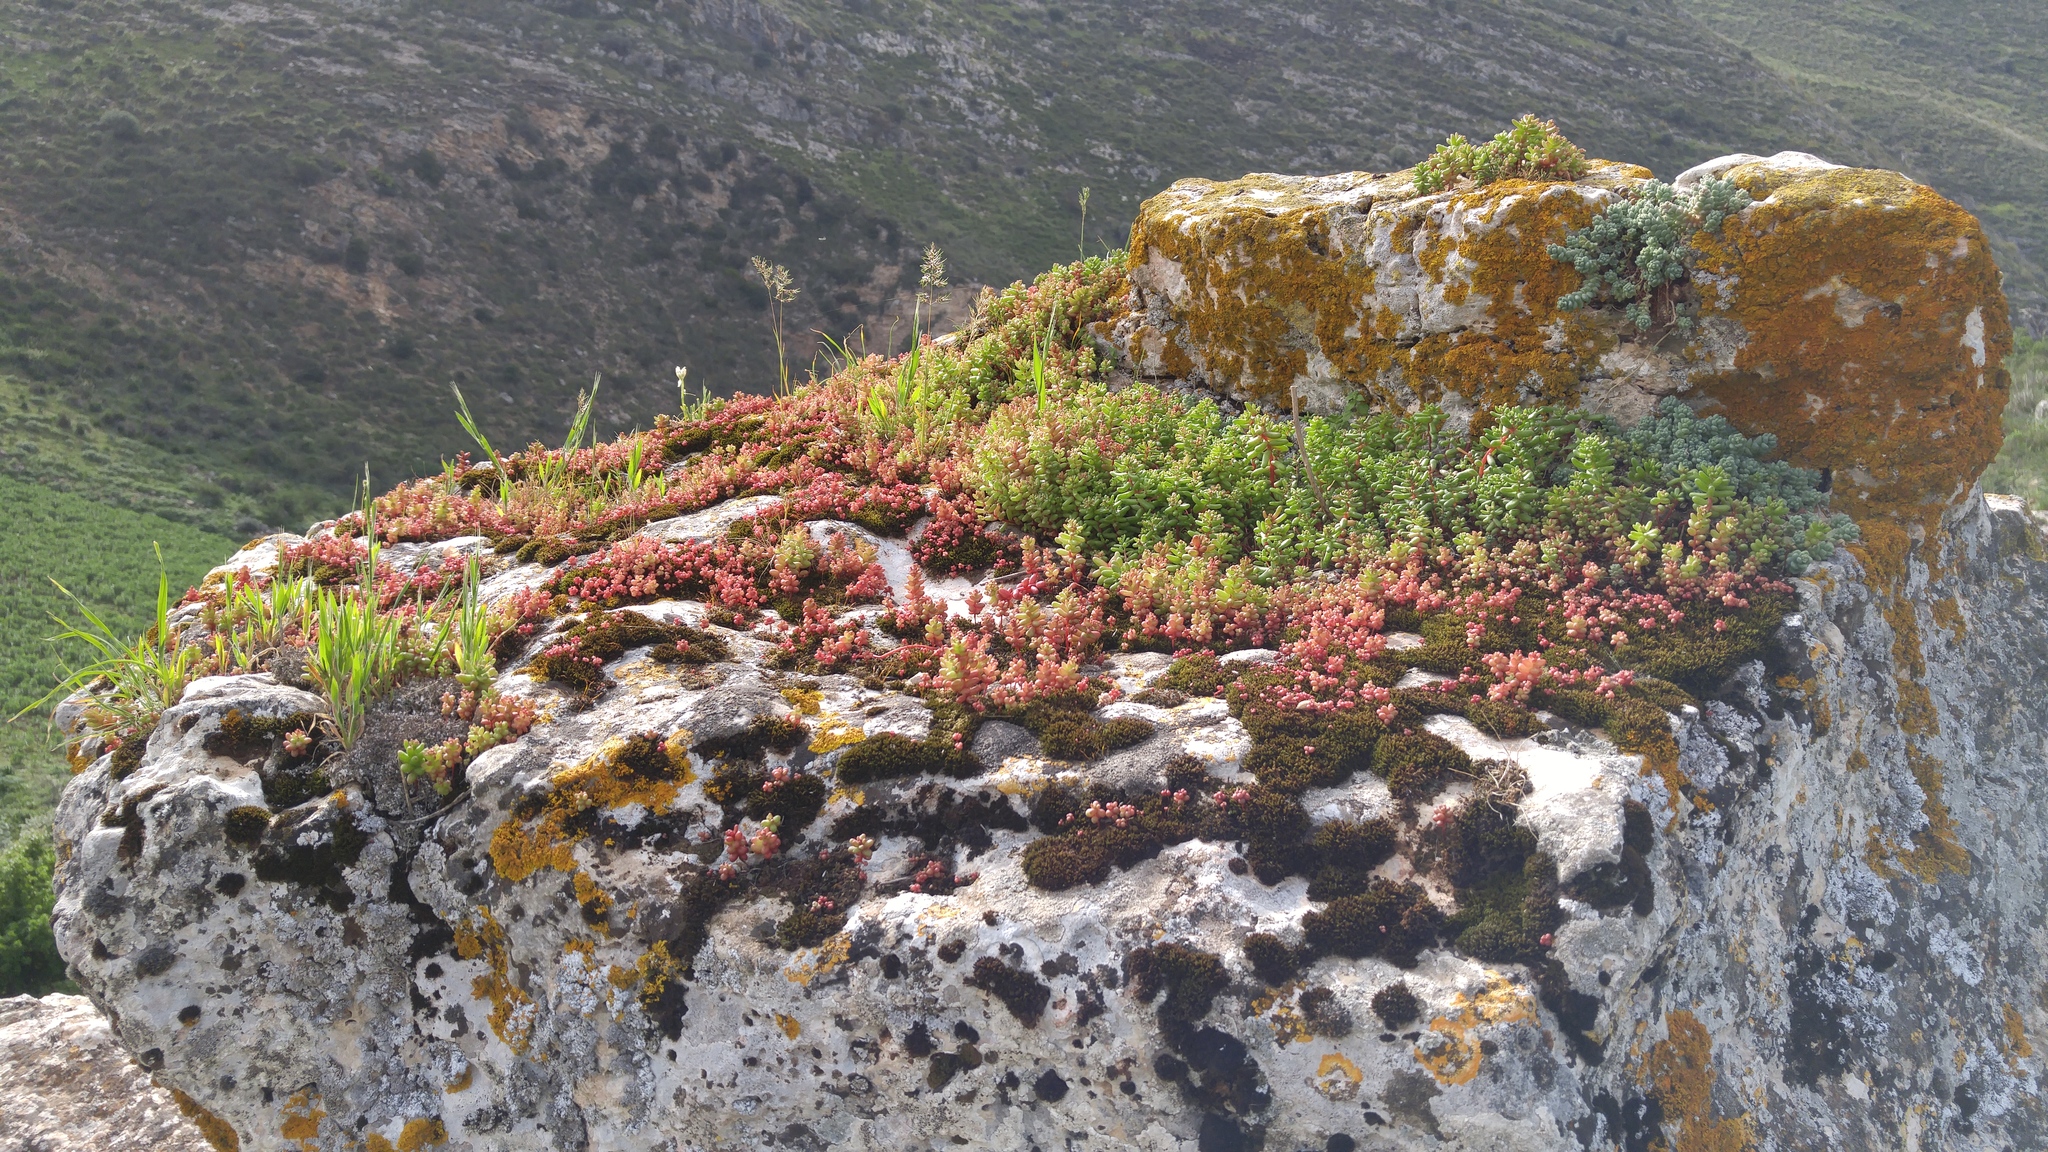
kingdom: Plantae
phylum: Tracheophyta
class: Magnoliopsida
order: Saxifragales
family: Crassulaceae
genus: Sedum
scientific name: Sedum caeruleum
